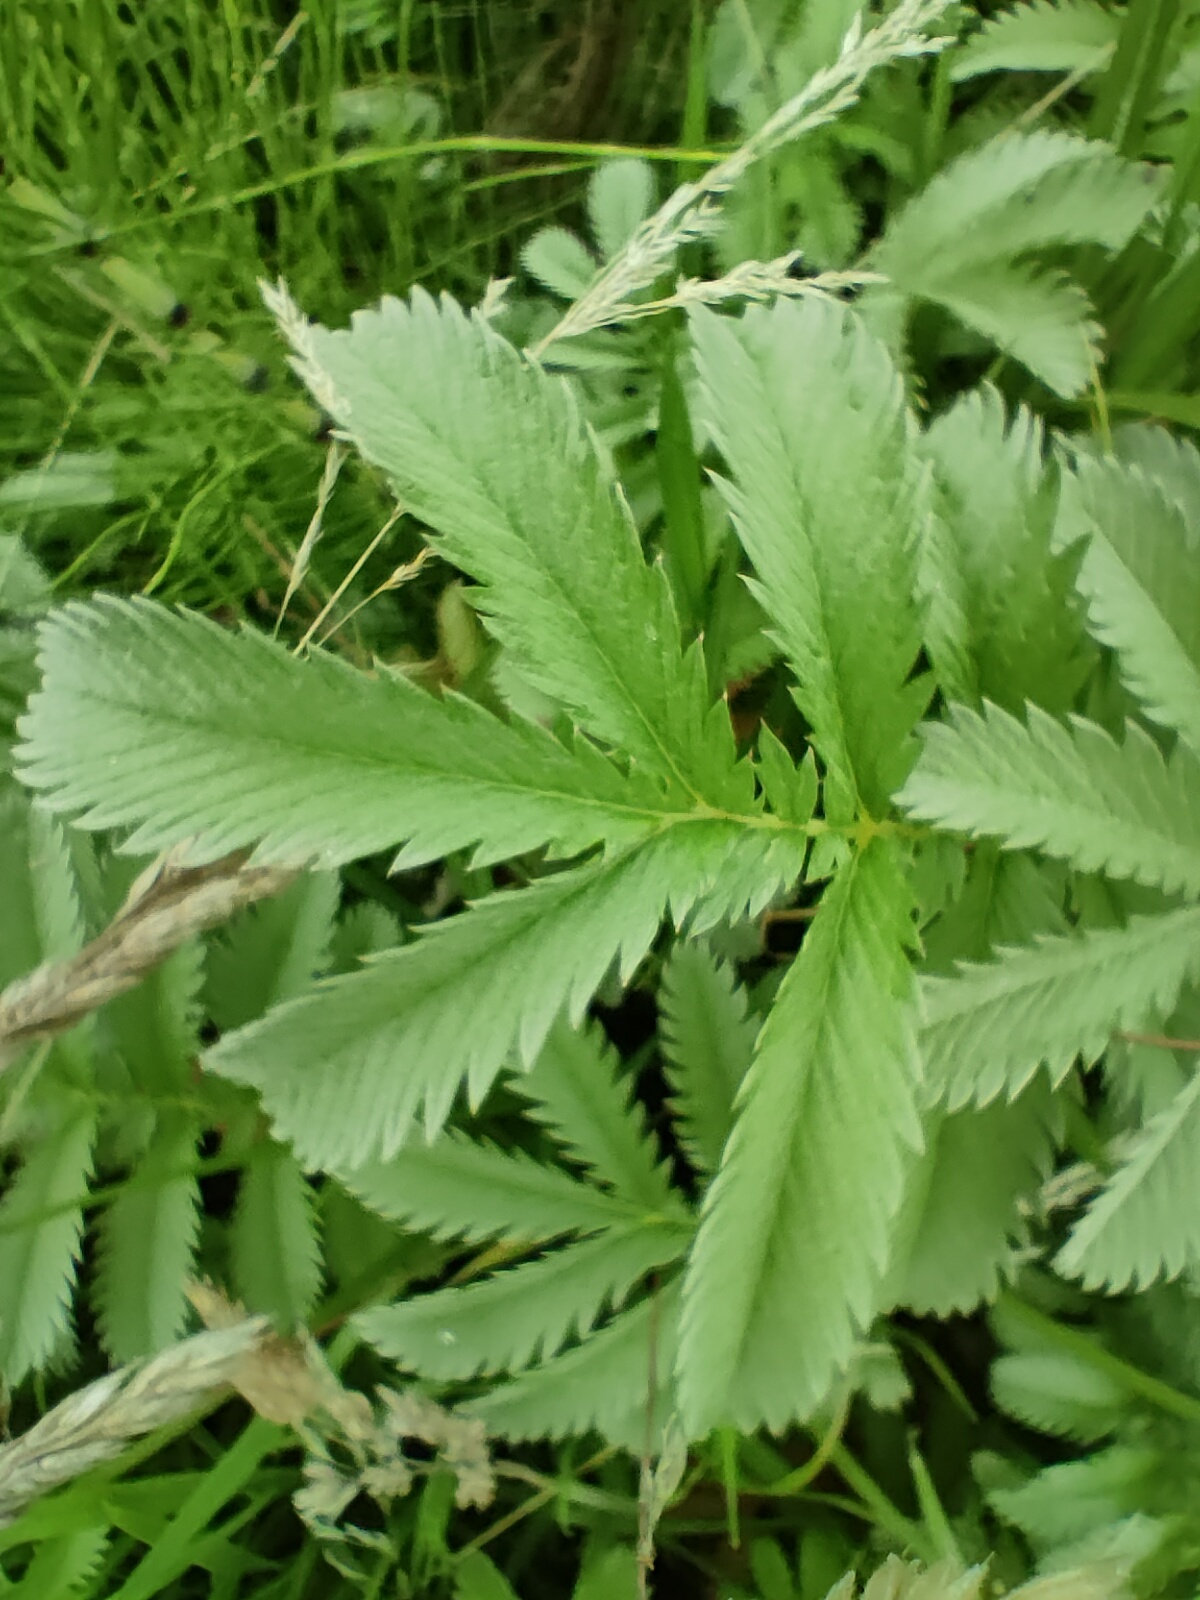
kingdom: Plantae
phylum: Tracheophyta
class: Magnoliopsida
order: Rosales
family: Rosaceae
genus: Argentina
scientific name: Argentina anserina
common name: Common silverweed
